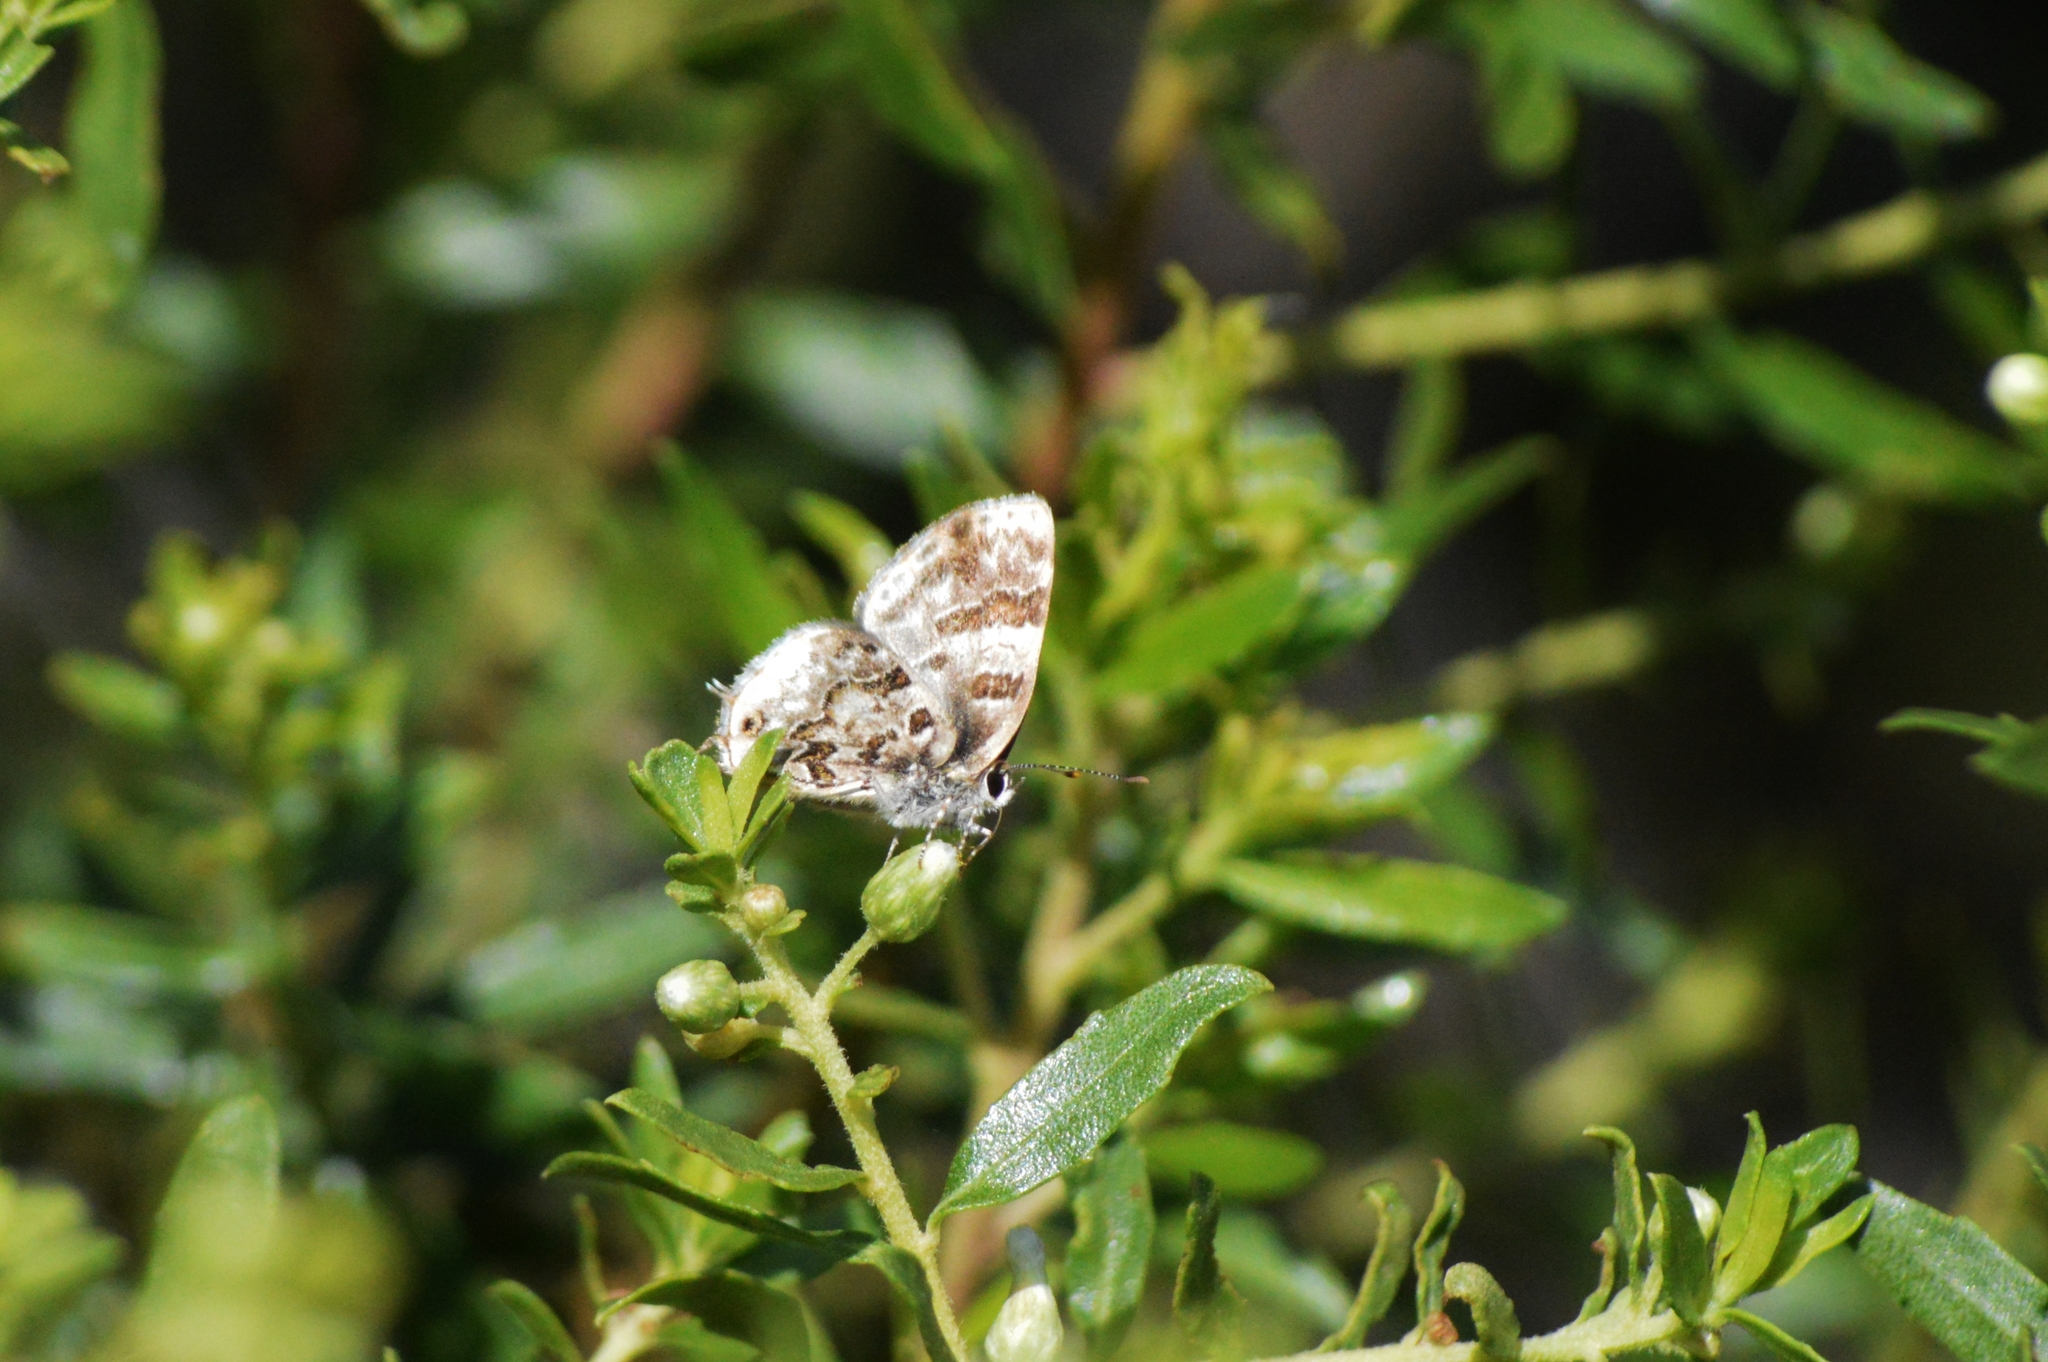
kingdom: Animalia
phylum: Arthropoda
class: Insecta
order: Lepidoptera
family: Lycaenidae
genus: Aubergina
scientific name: Aubergina vanessoides
